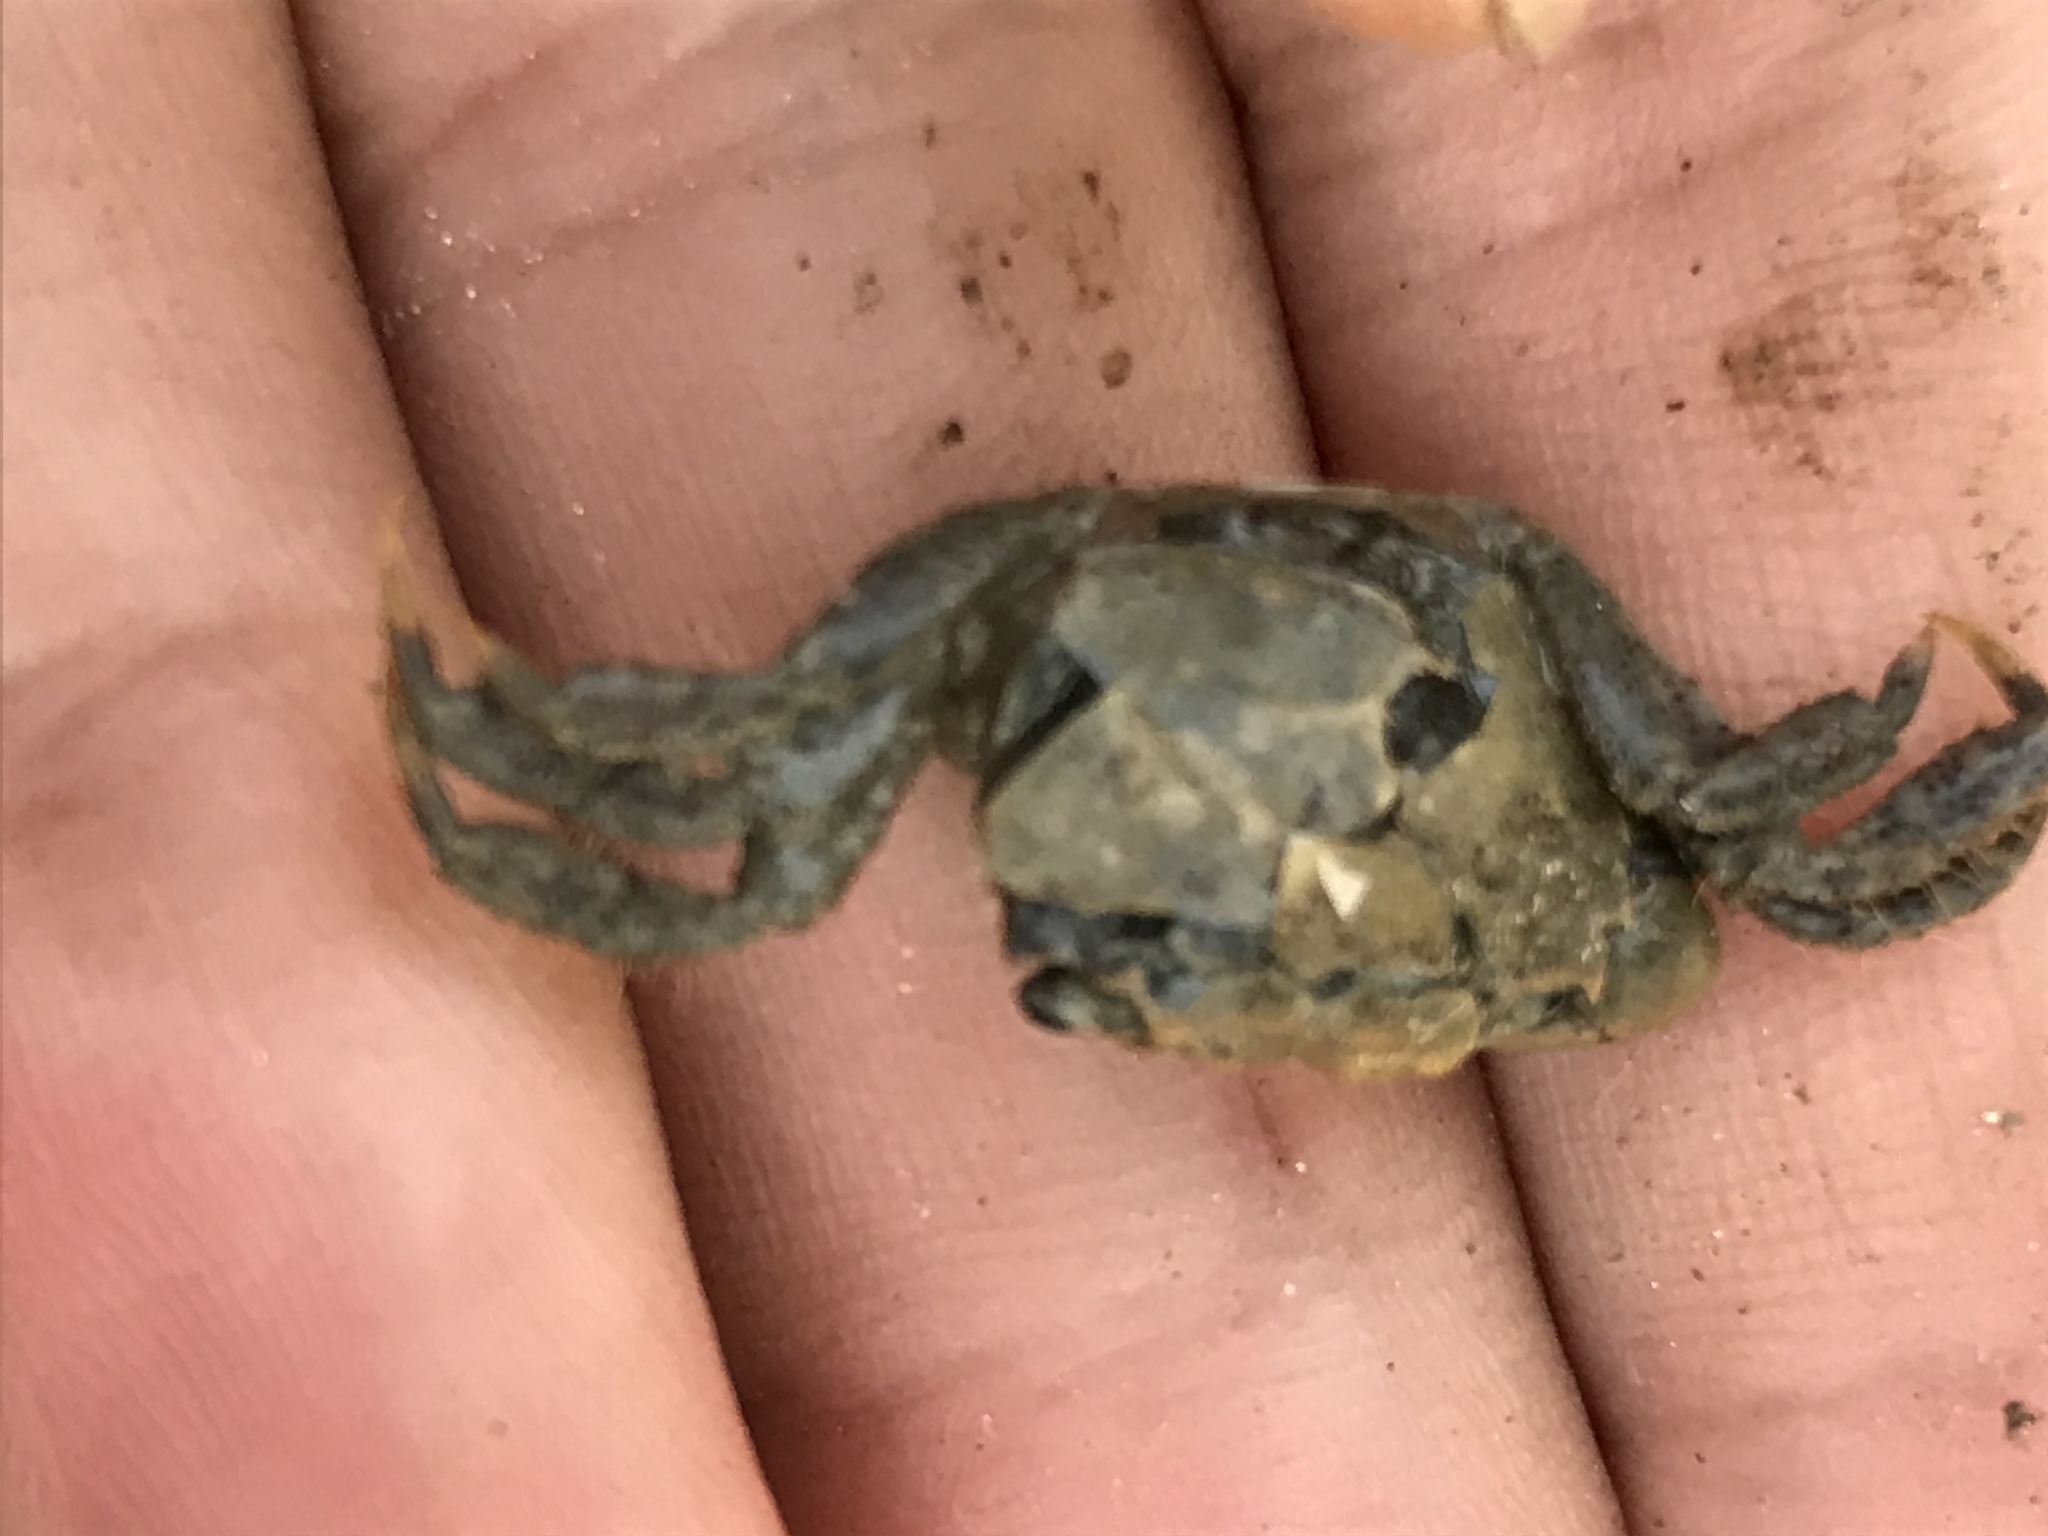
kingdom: Animalia
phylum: Arthropoda
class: Malacostraca
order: Decapoda
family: Varunidae
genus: Hemigrapsus
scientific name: Hemigrapsus oregonensis
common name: Yellow shore crab
